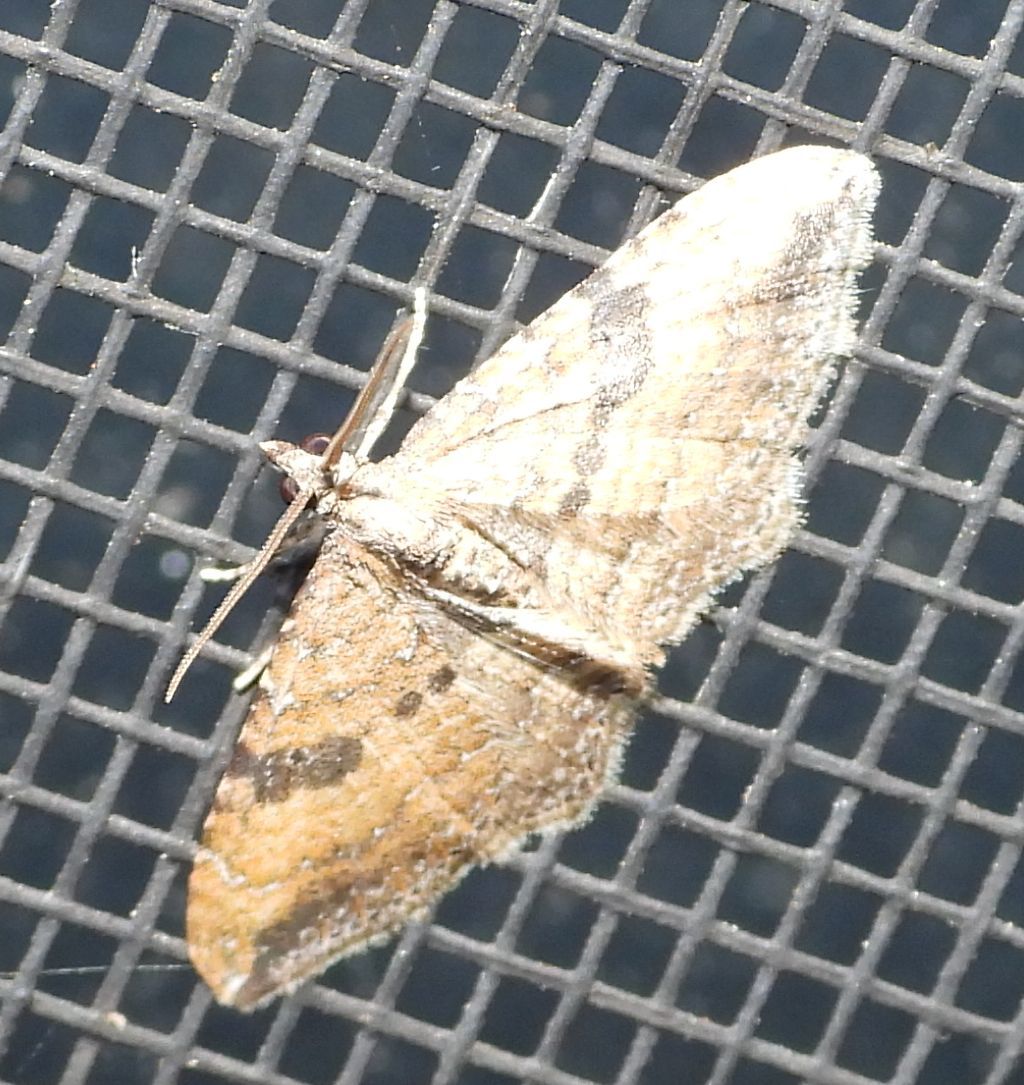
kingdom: Animalia
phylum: Arthropoda
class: Insecta
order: Lepidoptera
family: Geometridae
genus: Orthonama
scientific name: Orthonama obstipata
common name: The gem
